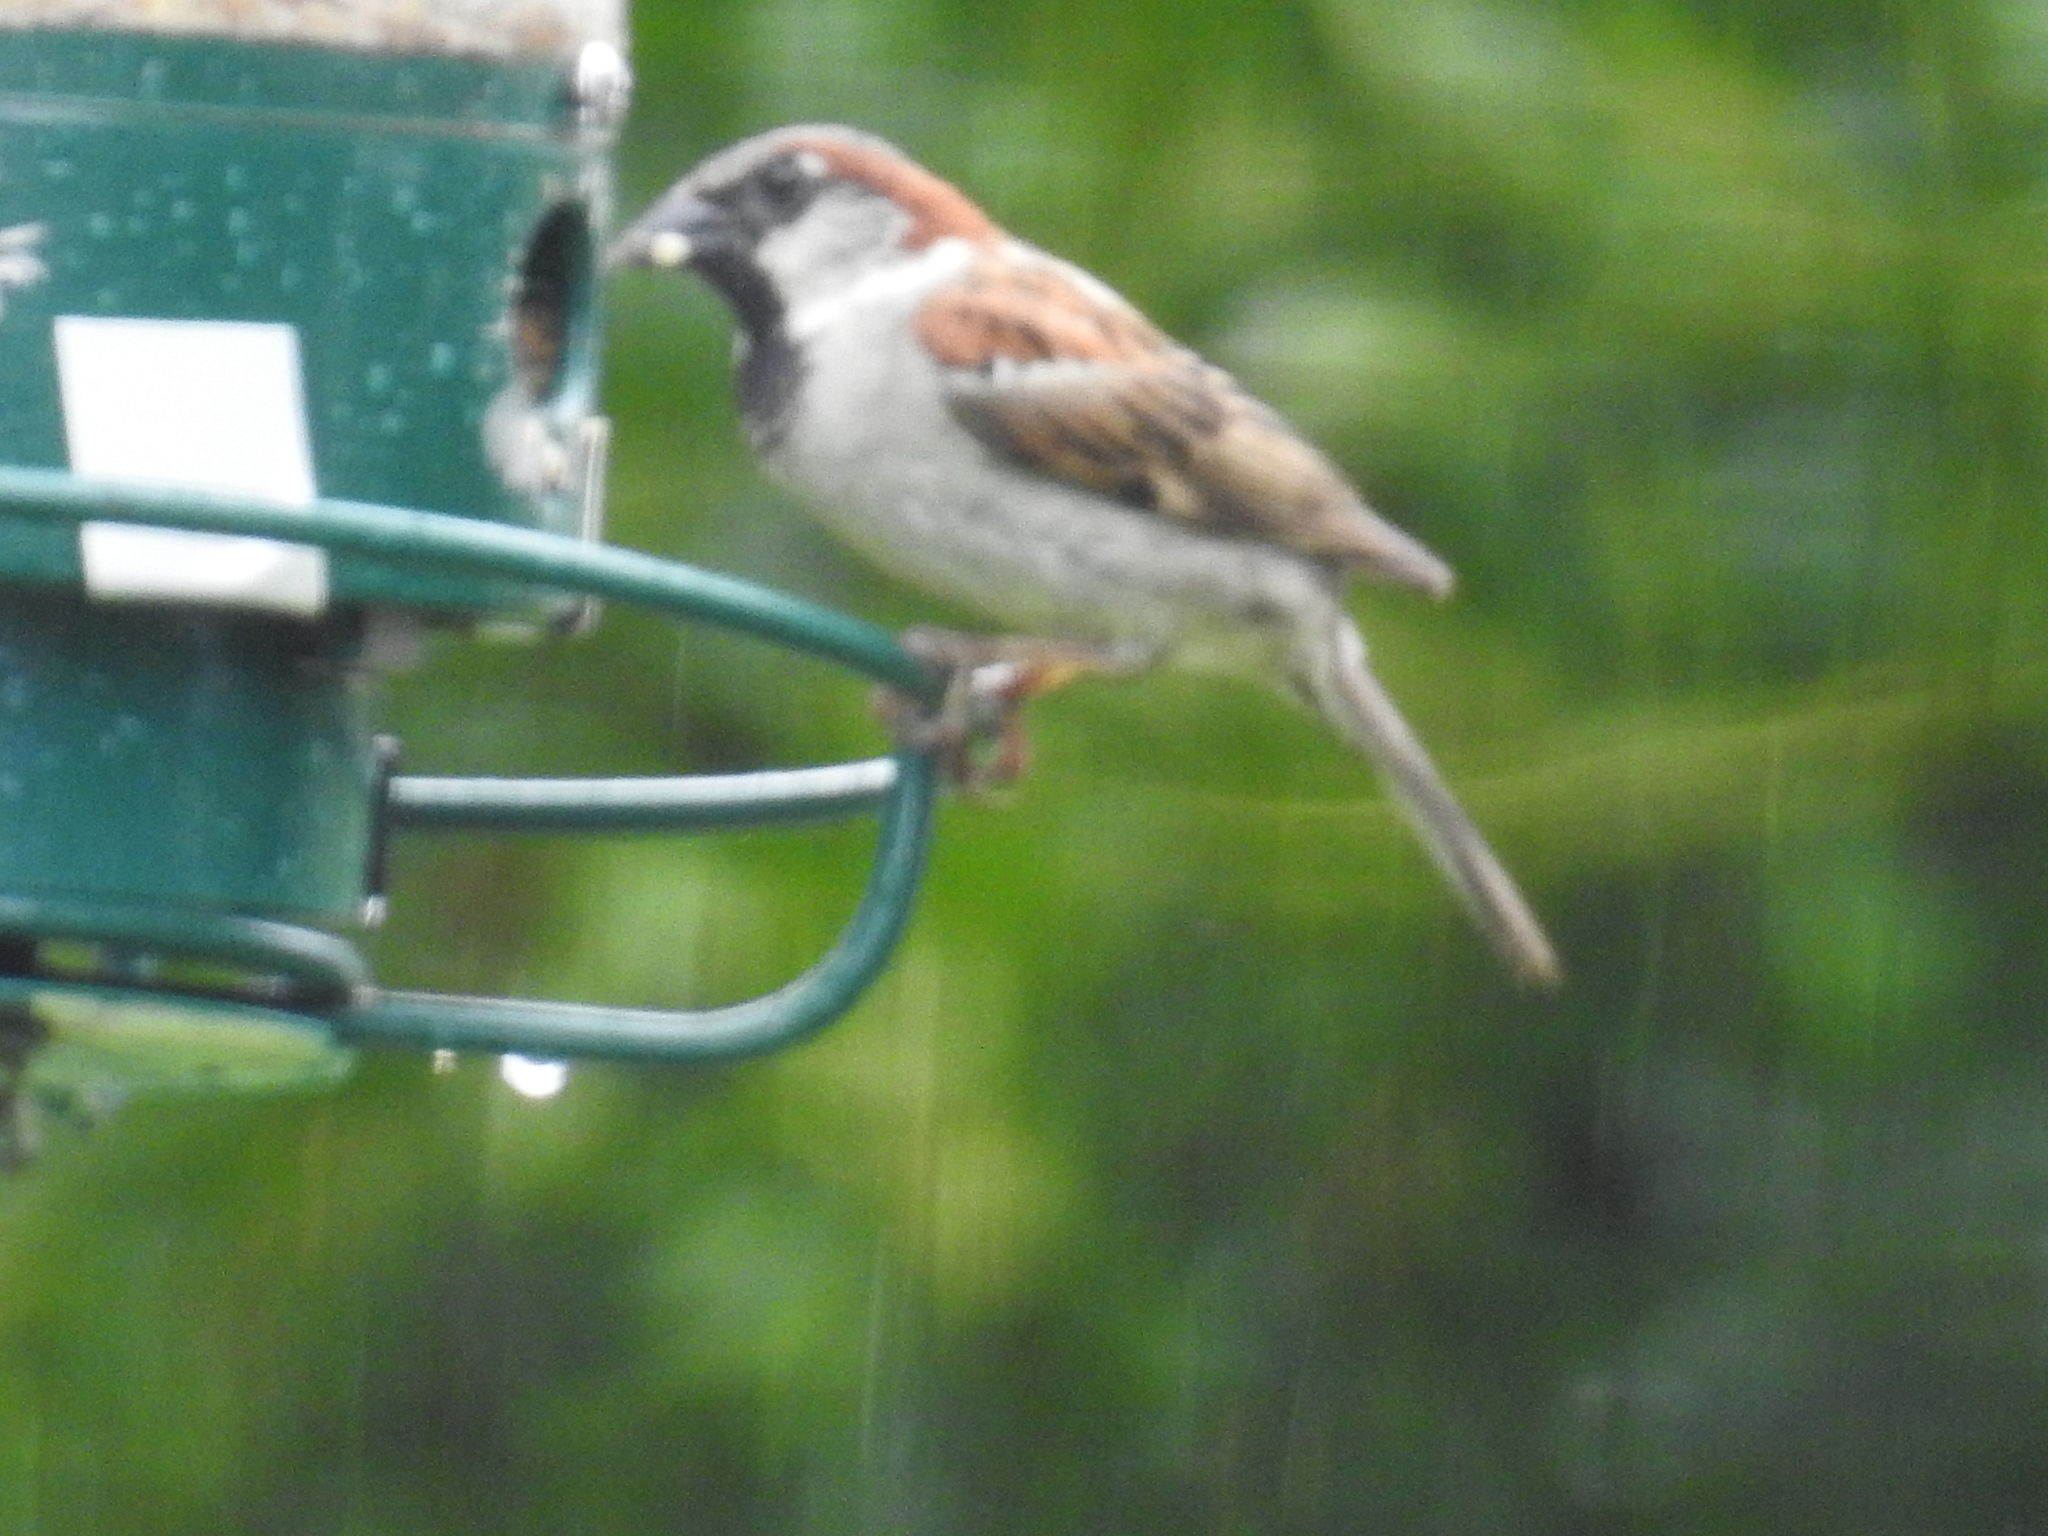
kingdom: Animalia
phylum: Chordata
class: Aves
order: Passeriformes
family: Passeridae
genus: Passer
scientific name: Passer domesticus
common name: House sparrow
